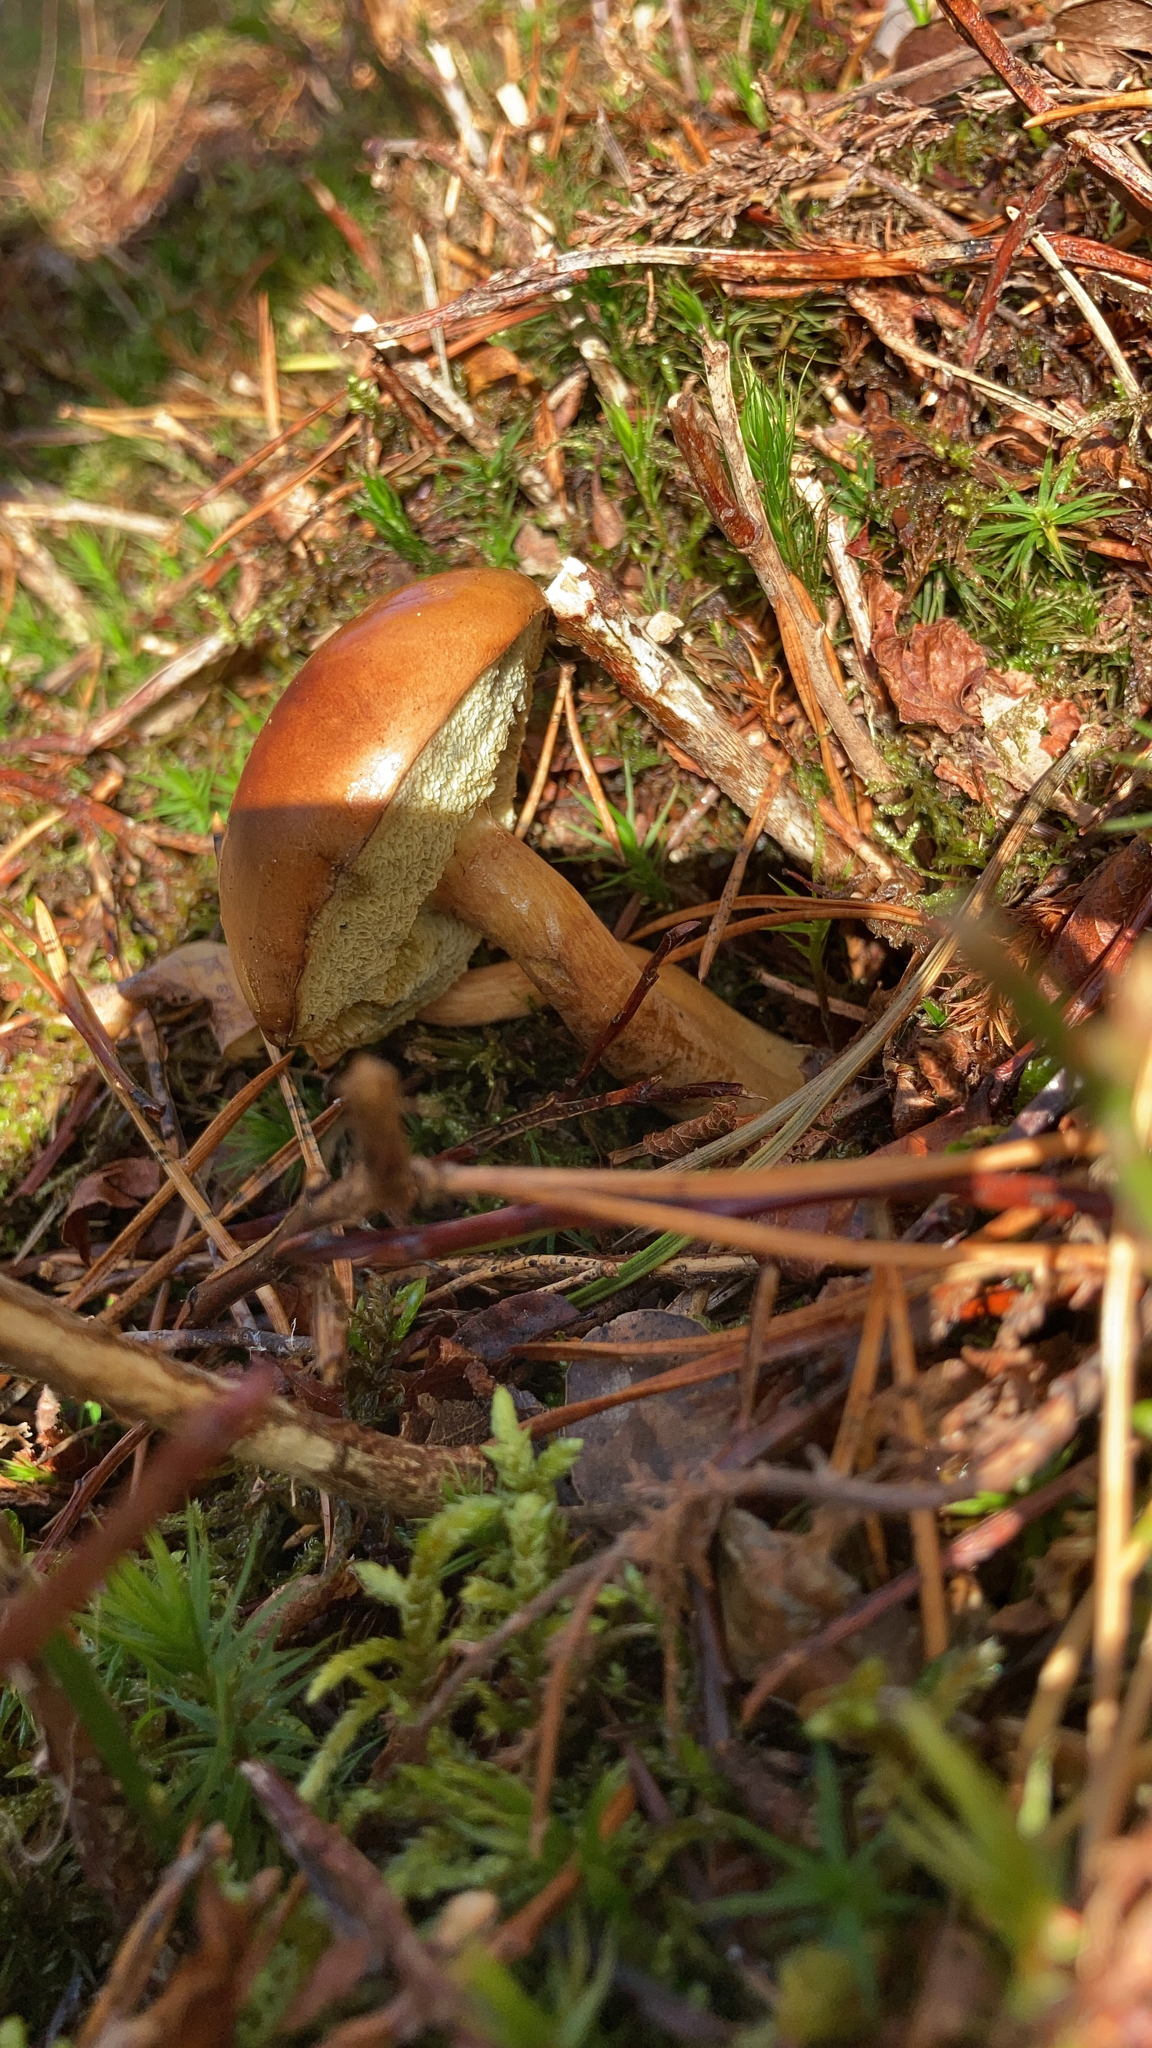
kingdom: Fungi
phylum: Basidiomycota
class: Agaricomycetes
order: Boletales
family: Boletaceae
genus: Imleria
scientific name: Imleria badia
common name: Bay bolete
